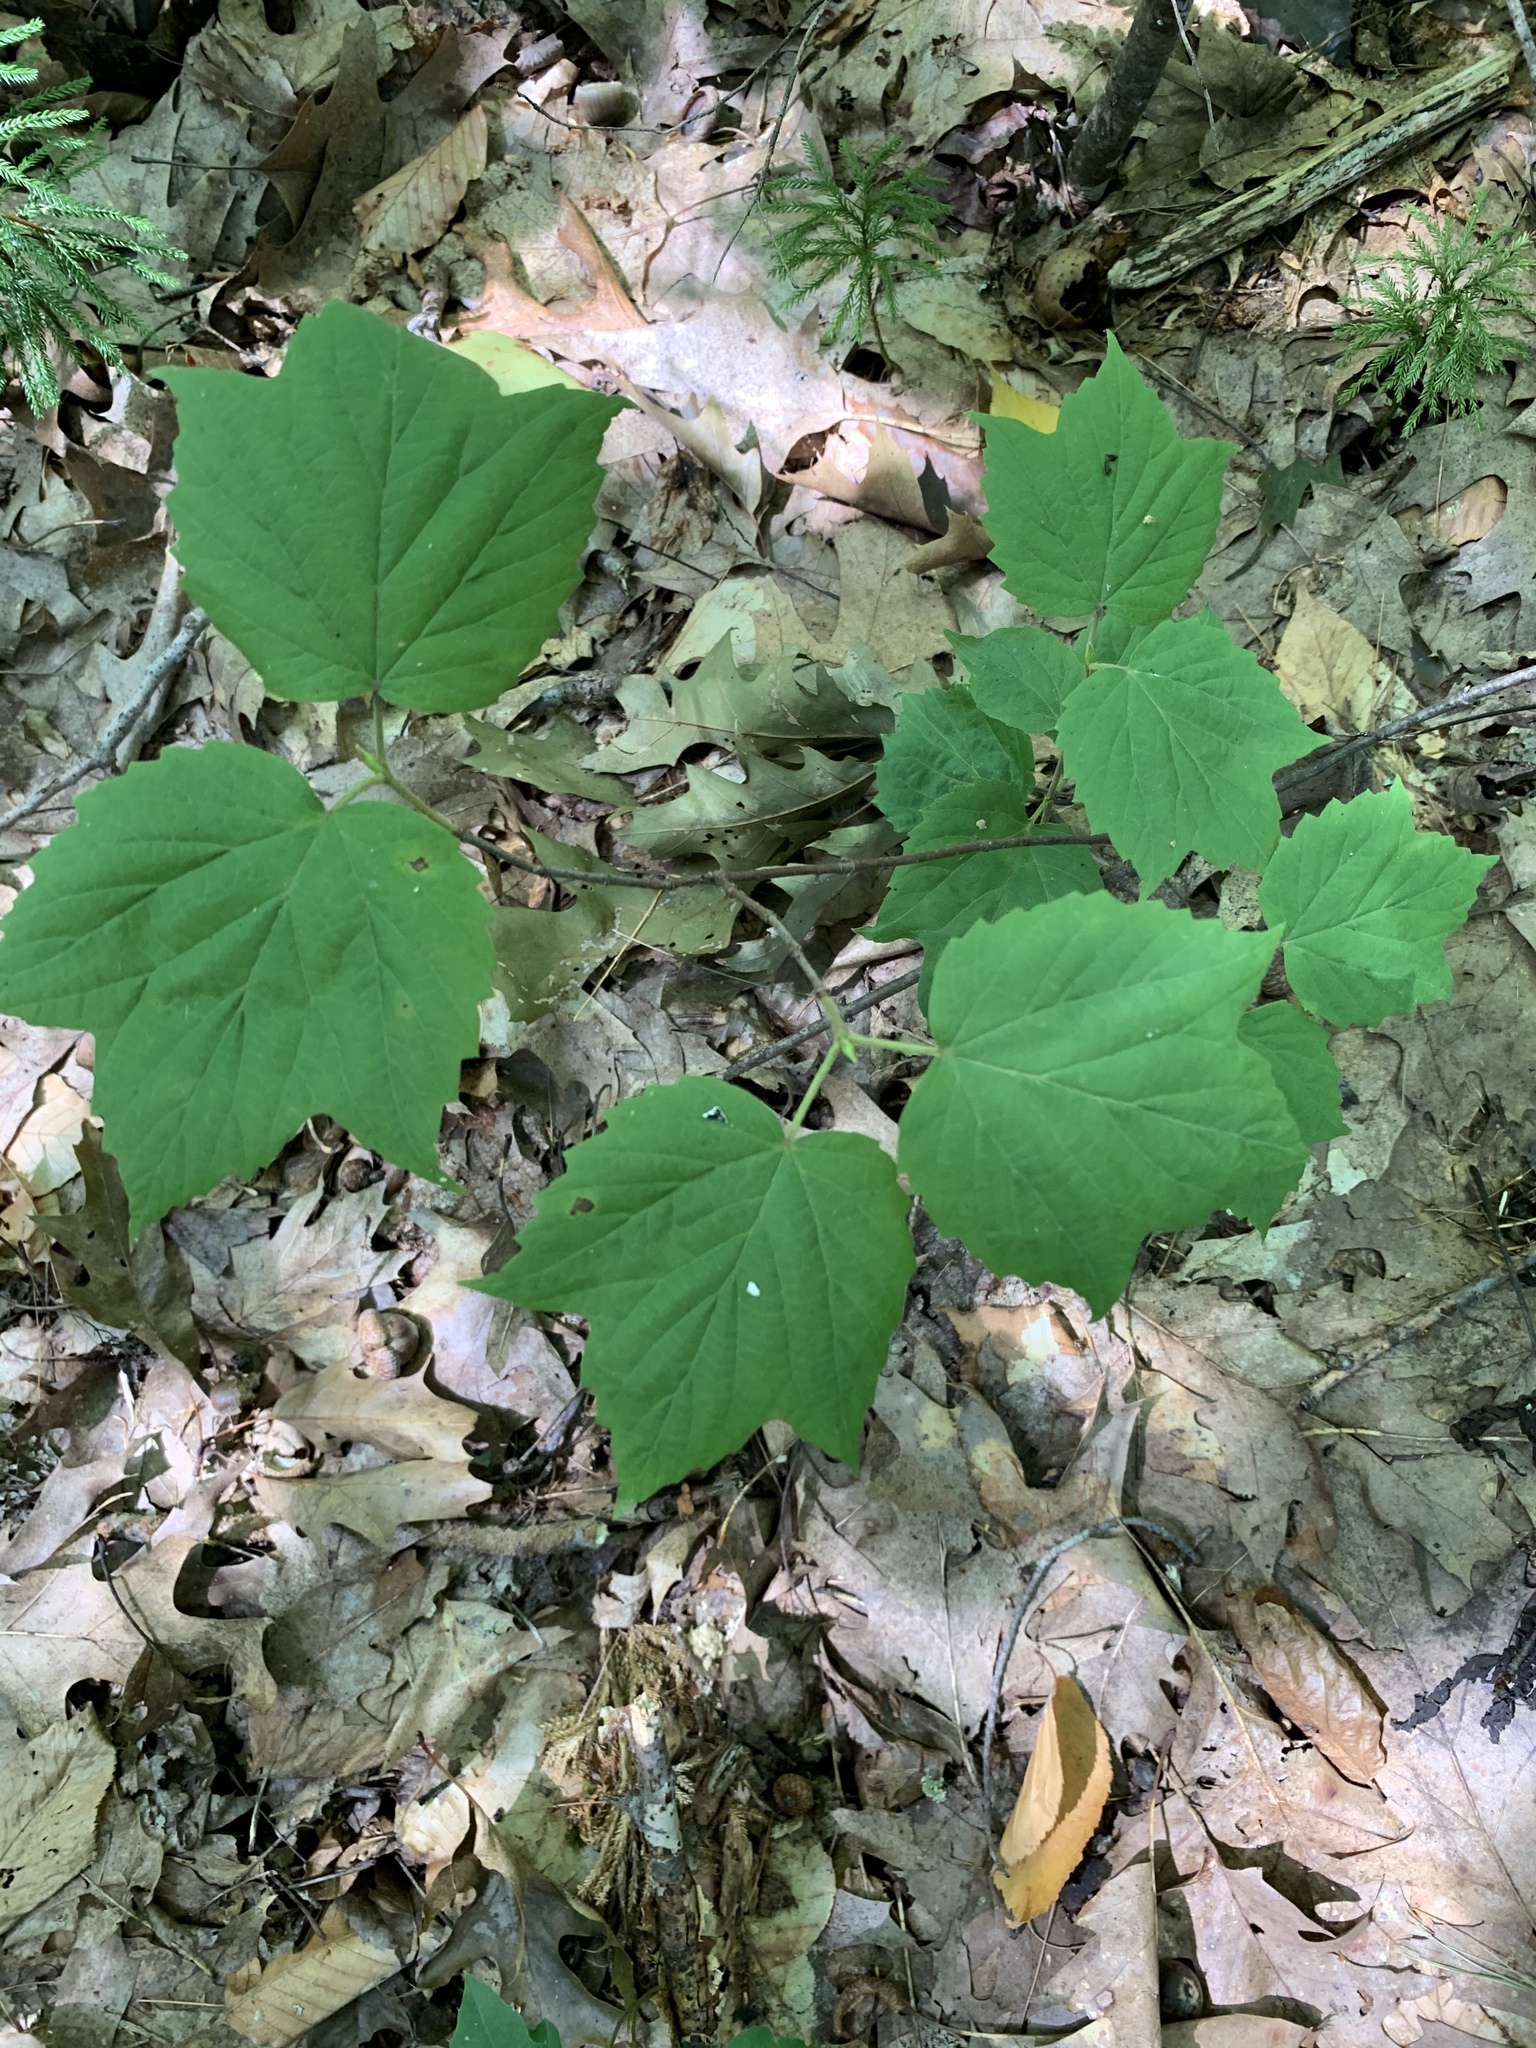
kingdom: Plantae
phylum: Tracheophyta
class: Magnoliopsida
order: Dipsacales
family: Viburnaceae
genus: Viburnum
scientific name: Viburnum acerifolium
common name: Dockmackie
